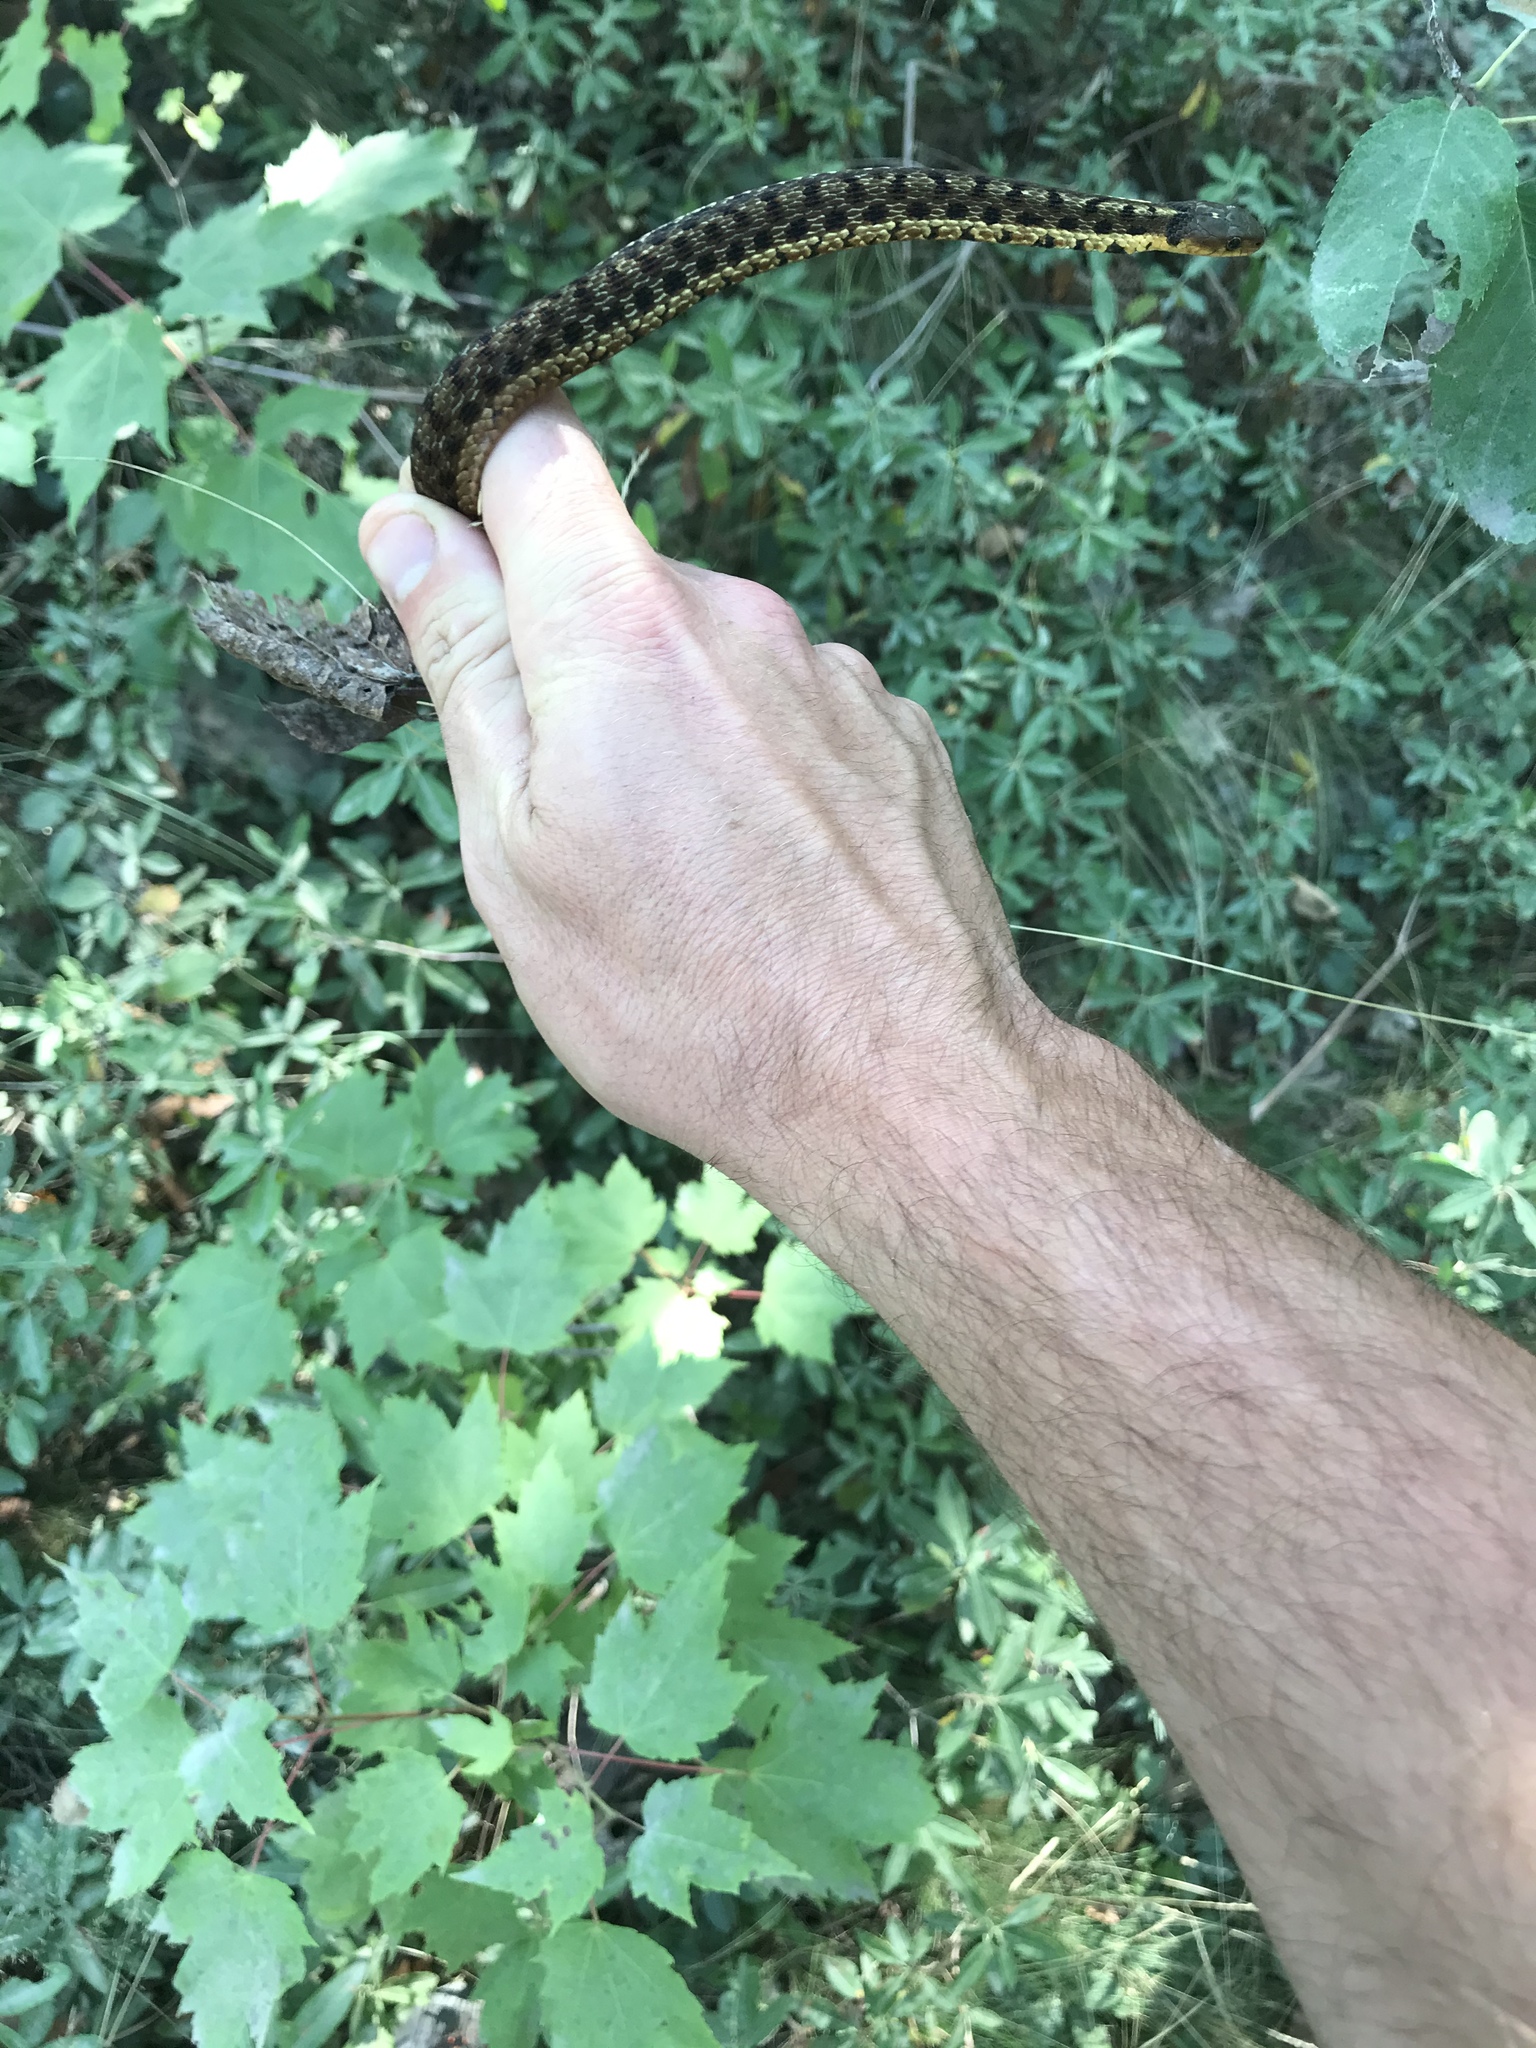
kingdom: Animalia
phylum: Chordata
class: Squamata
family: Colubridae
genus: Thamnophis
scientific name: Thamnophis sirtalis
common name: Common garter snake
